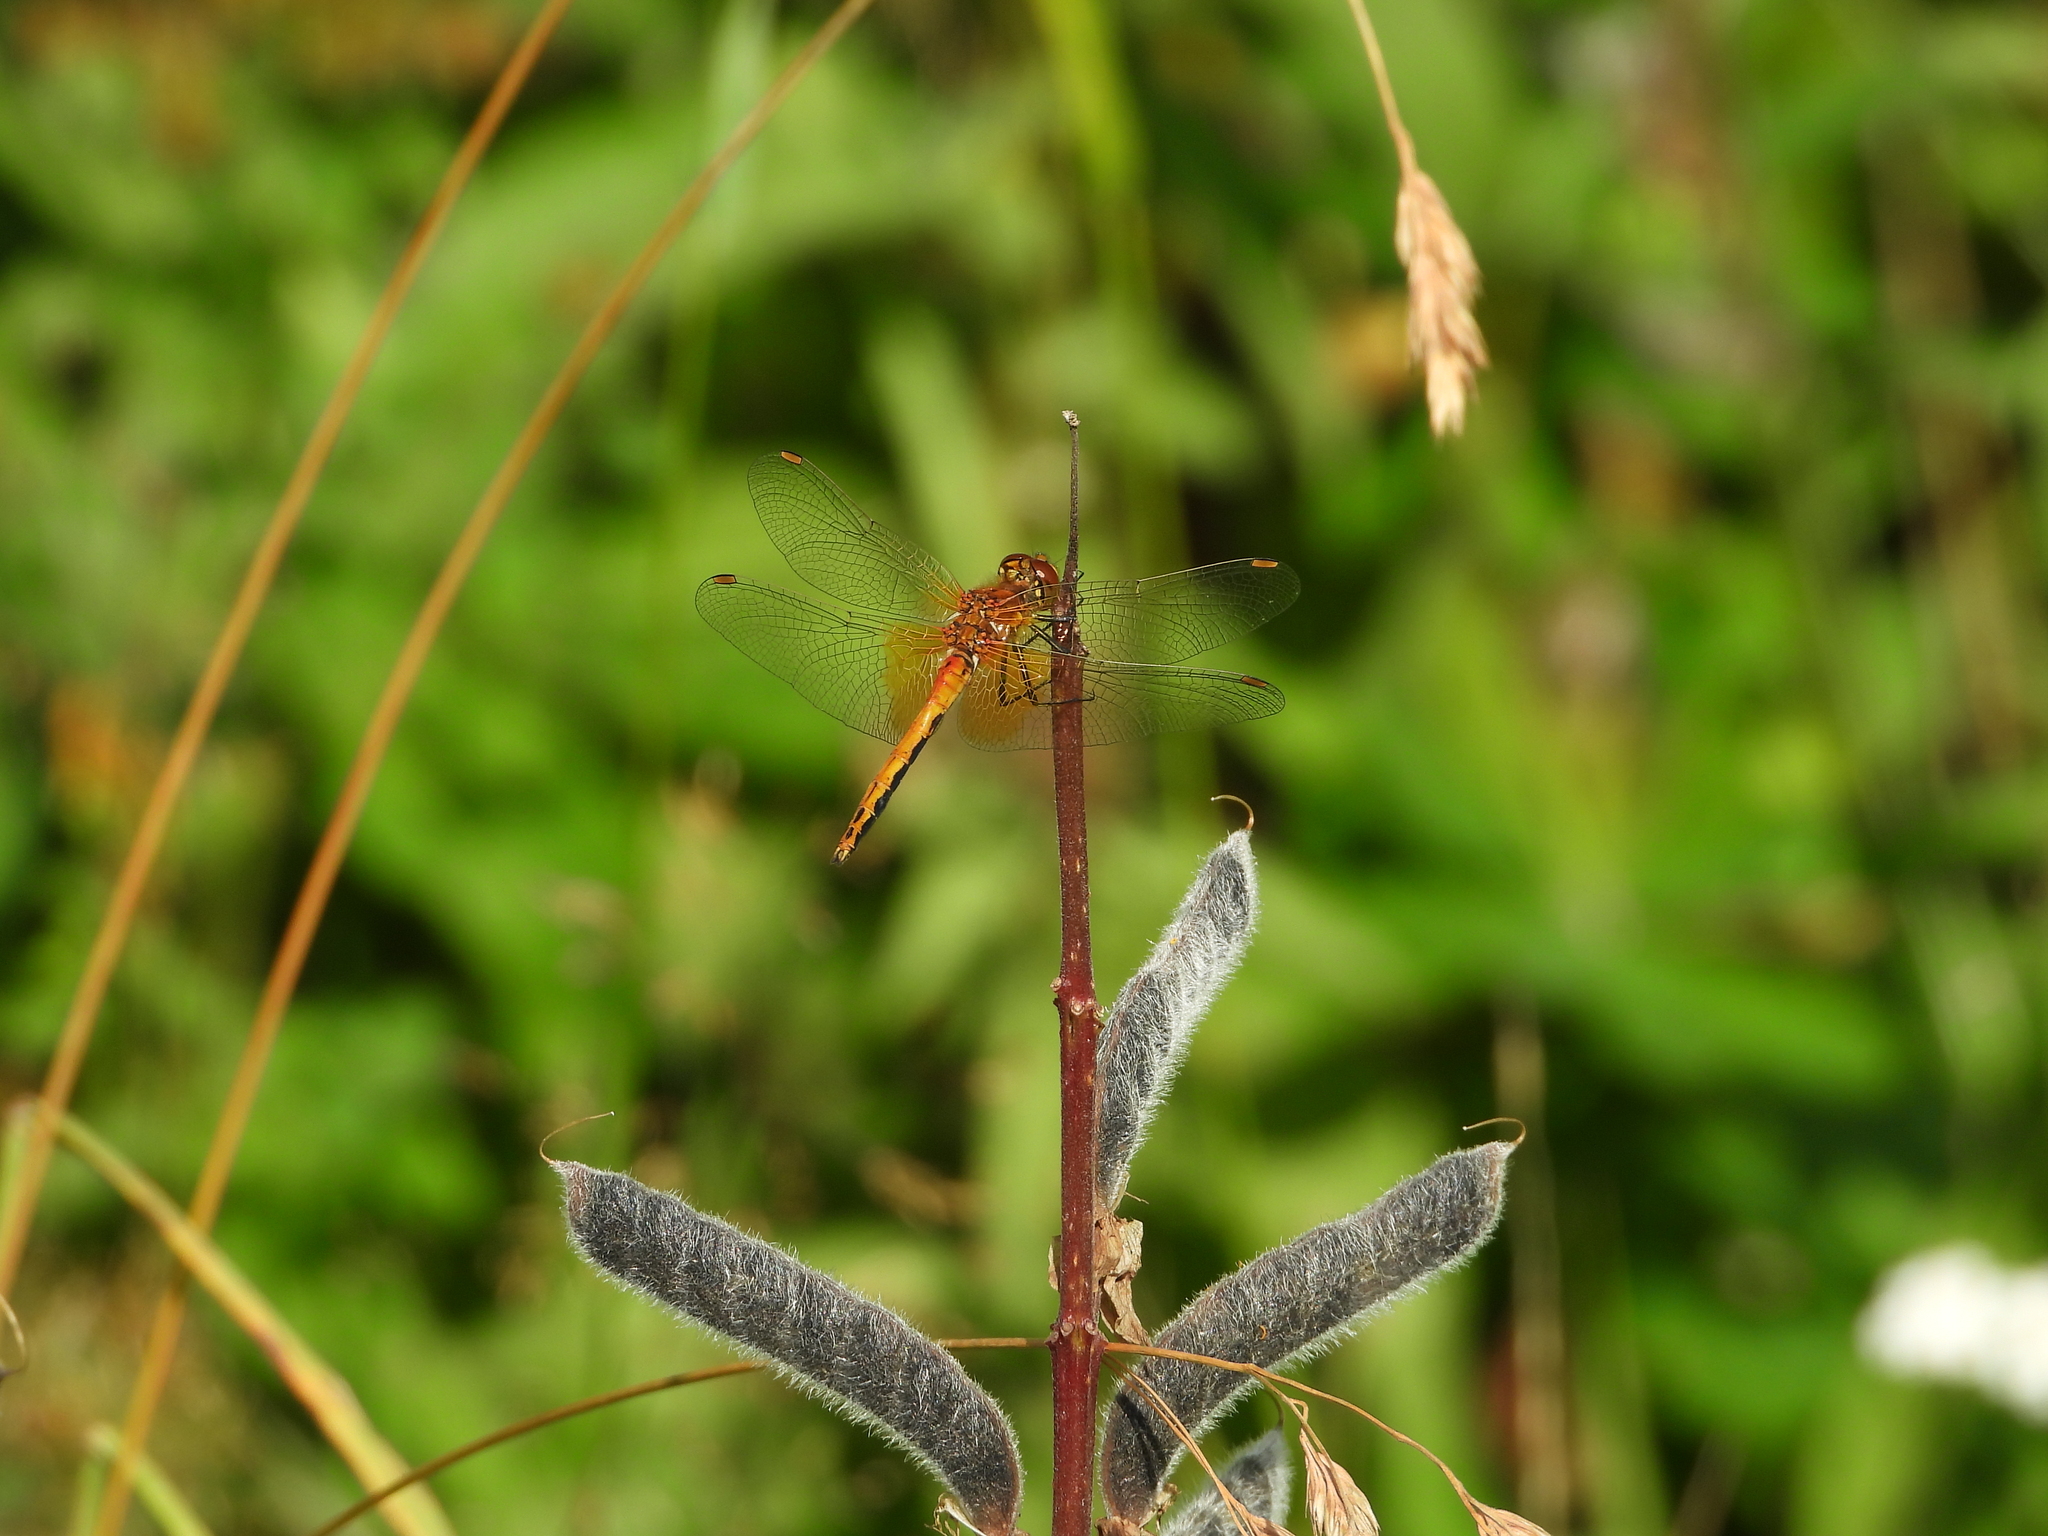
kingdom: Animalia
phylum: Arthropoda
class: Insecta
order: Odonata
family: Libellulidae
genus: Sympetrum
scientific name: Sympetrum flaveolum
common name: Yellow-winged darter
